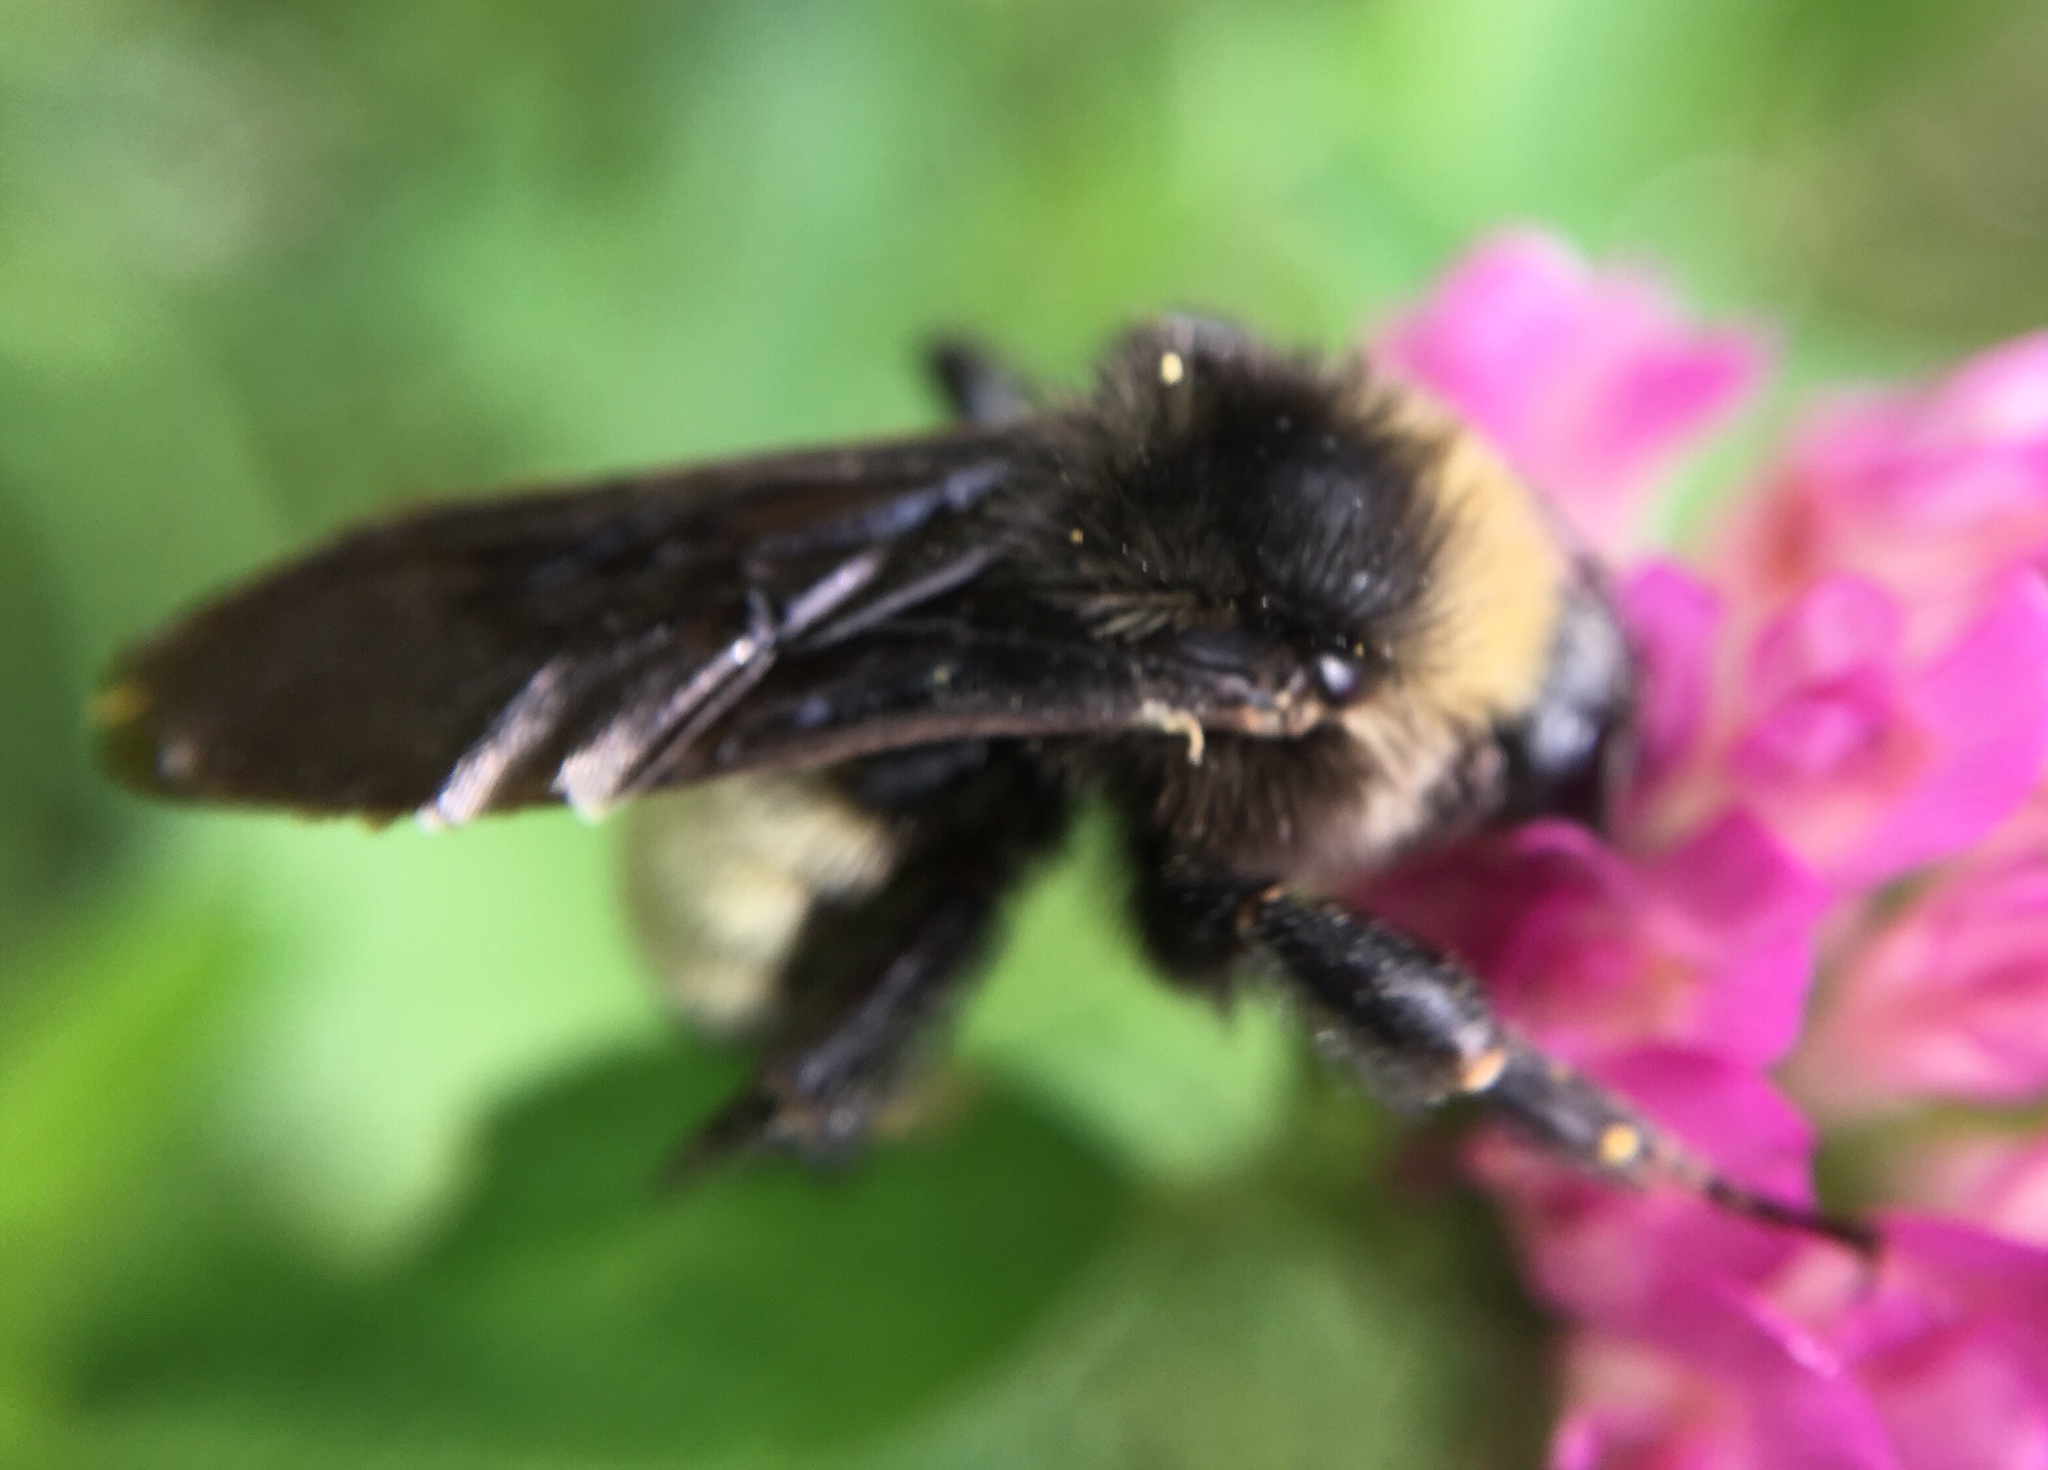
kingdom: Animalia
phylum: Arthropoda
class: Insecta
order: Hymenoptera
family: Apidae
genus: Bombus
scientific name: Bombus pensylvanicus
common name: Bumble bee
